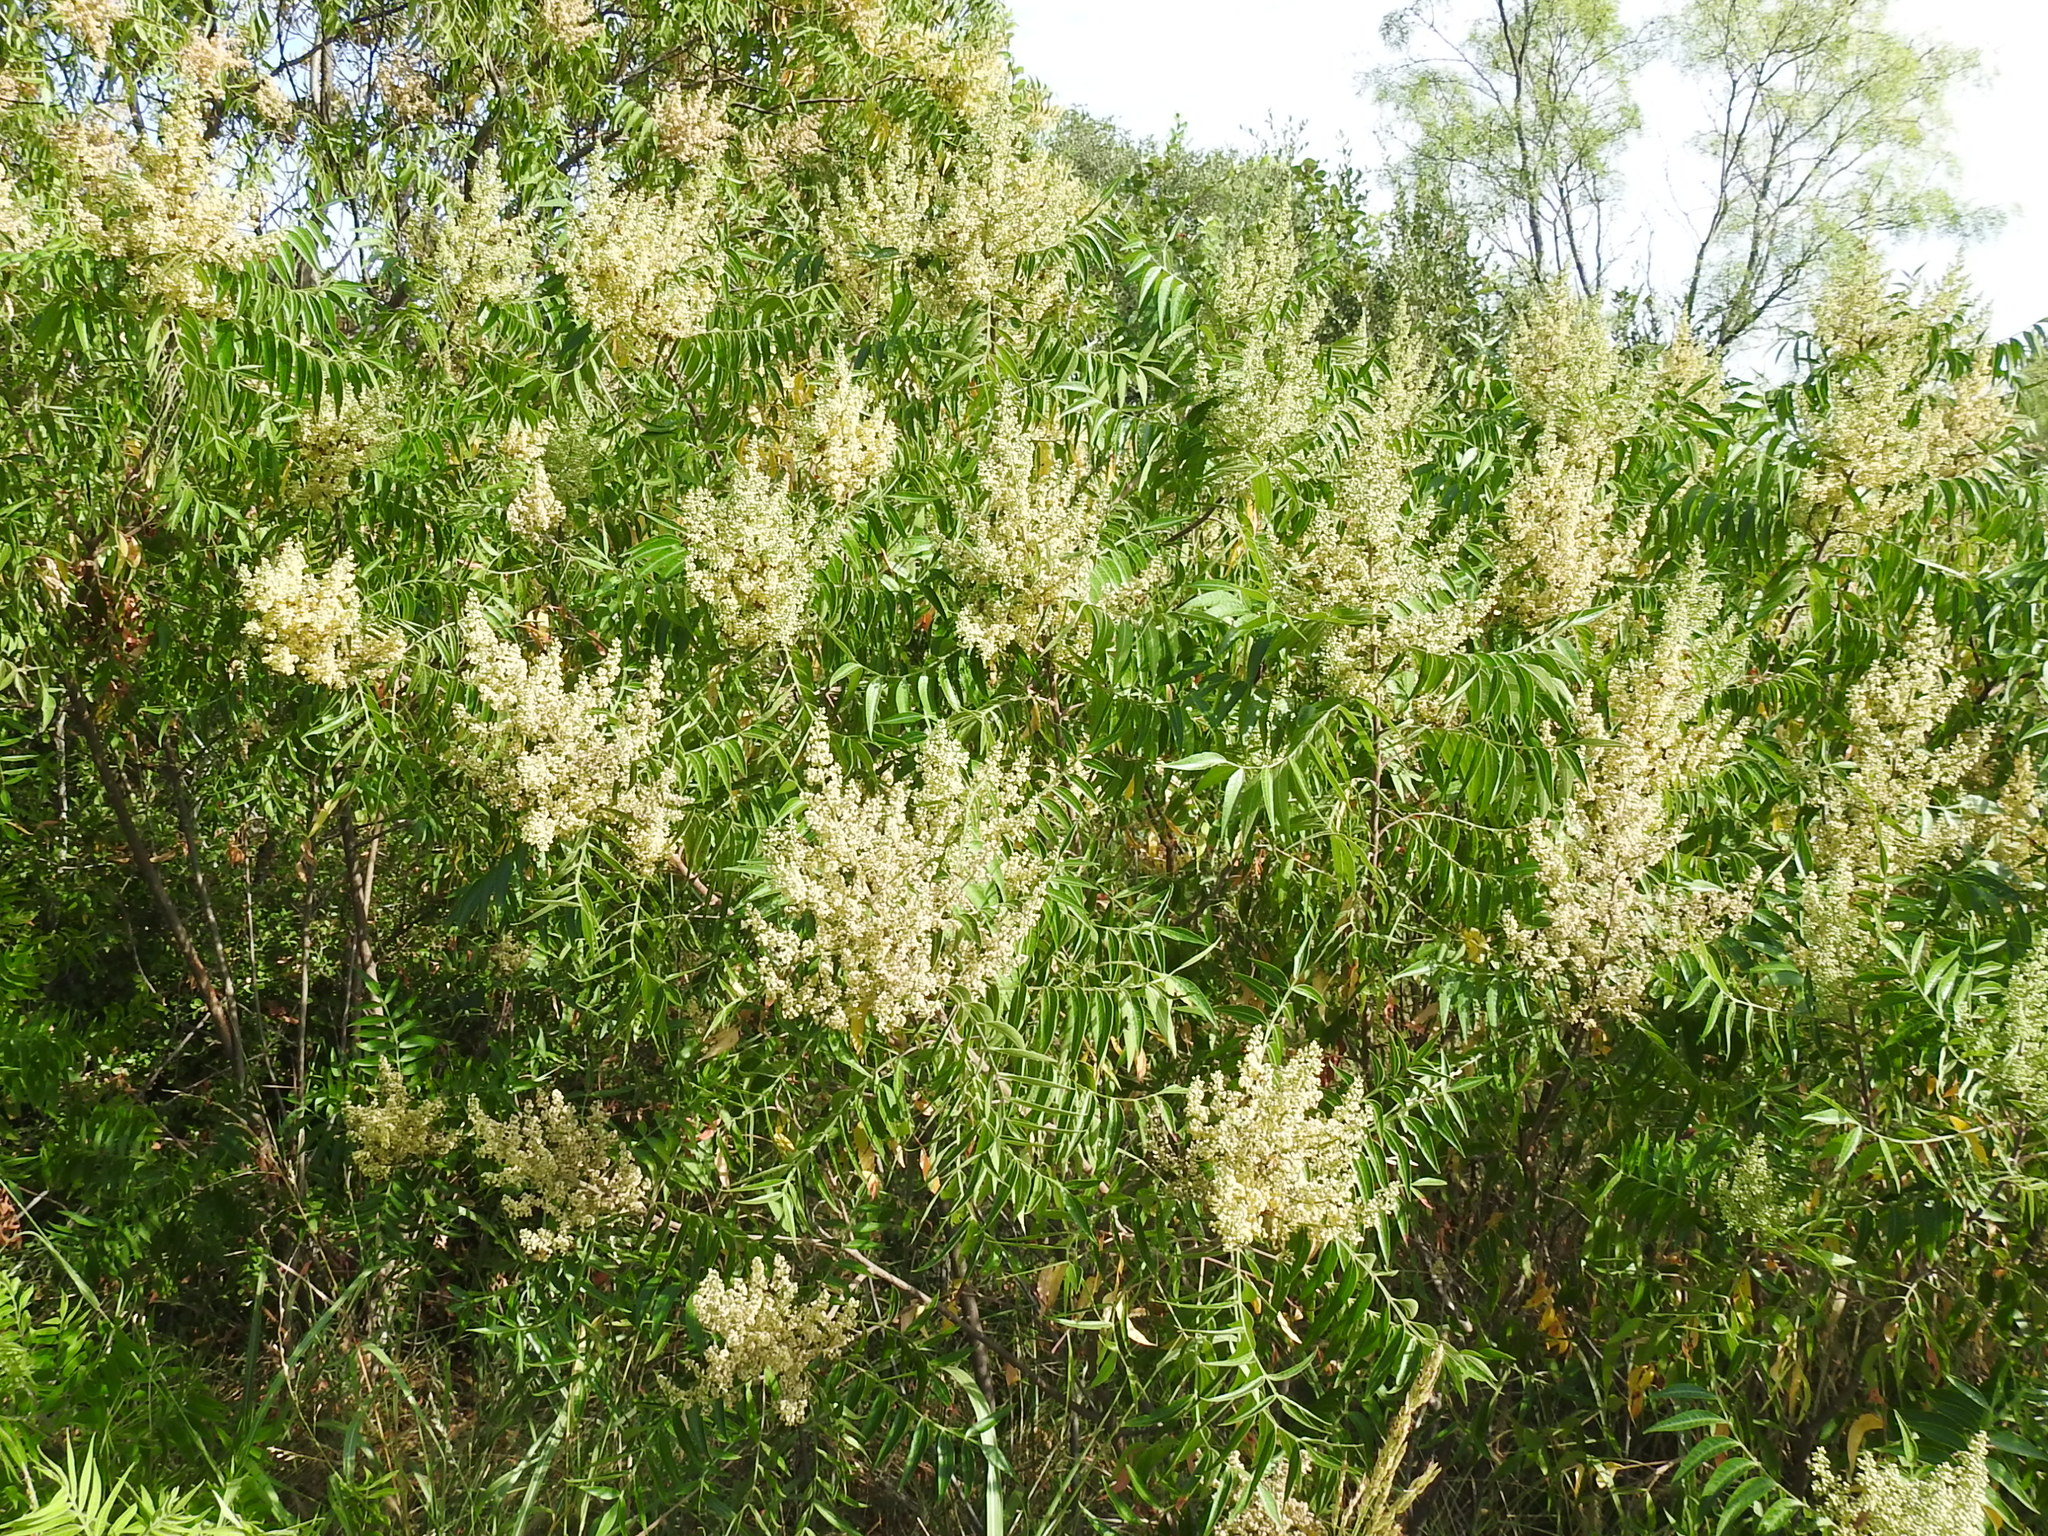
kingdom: Plantae
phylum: Tracheophyta
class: Magnoliopsida
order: Sapindales
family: Anacardiaceae
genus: Rhus
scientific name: Rhus lanceolata
